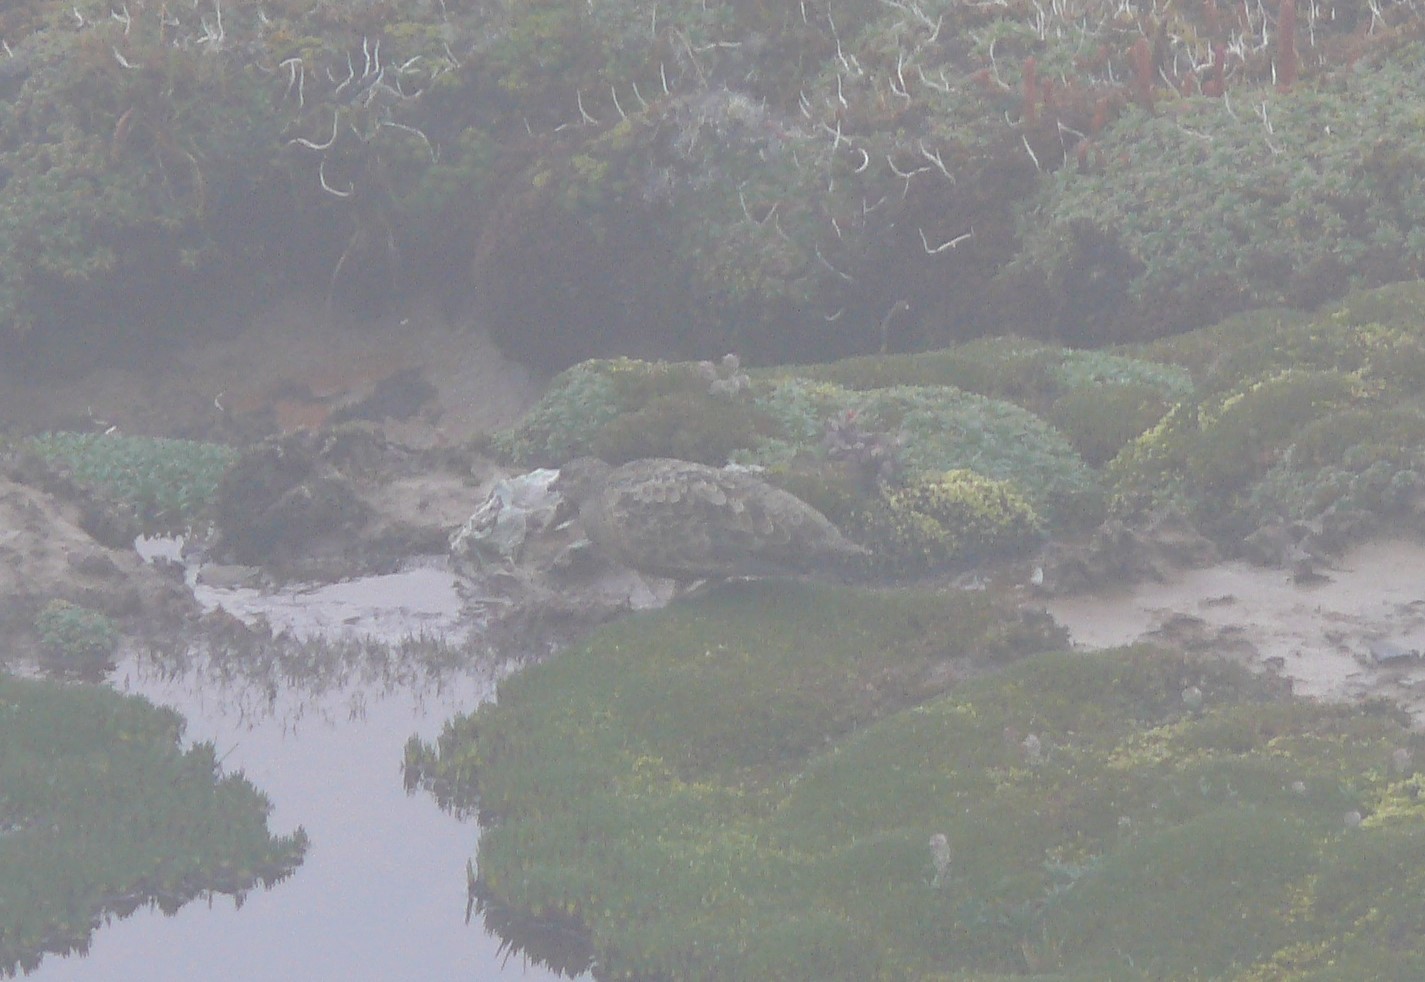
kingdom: Animalia
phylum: Chordata
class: Aves
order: Charadriiformes
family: Thinocoridae
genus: Attagis
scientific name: Attagis gayi
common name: Rufous-bellied seedsnipe
